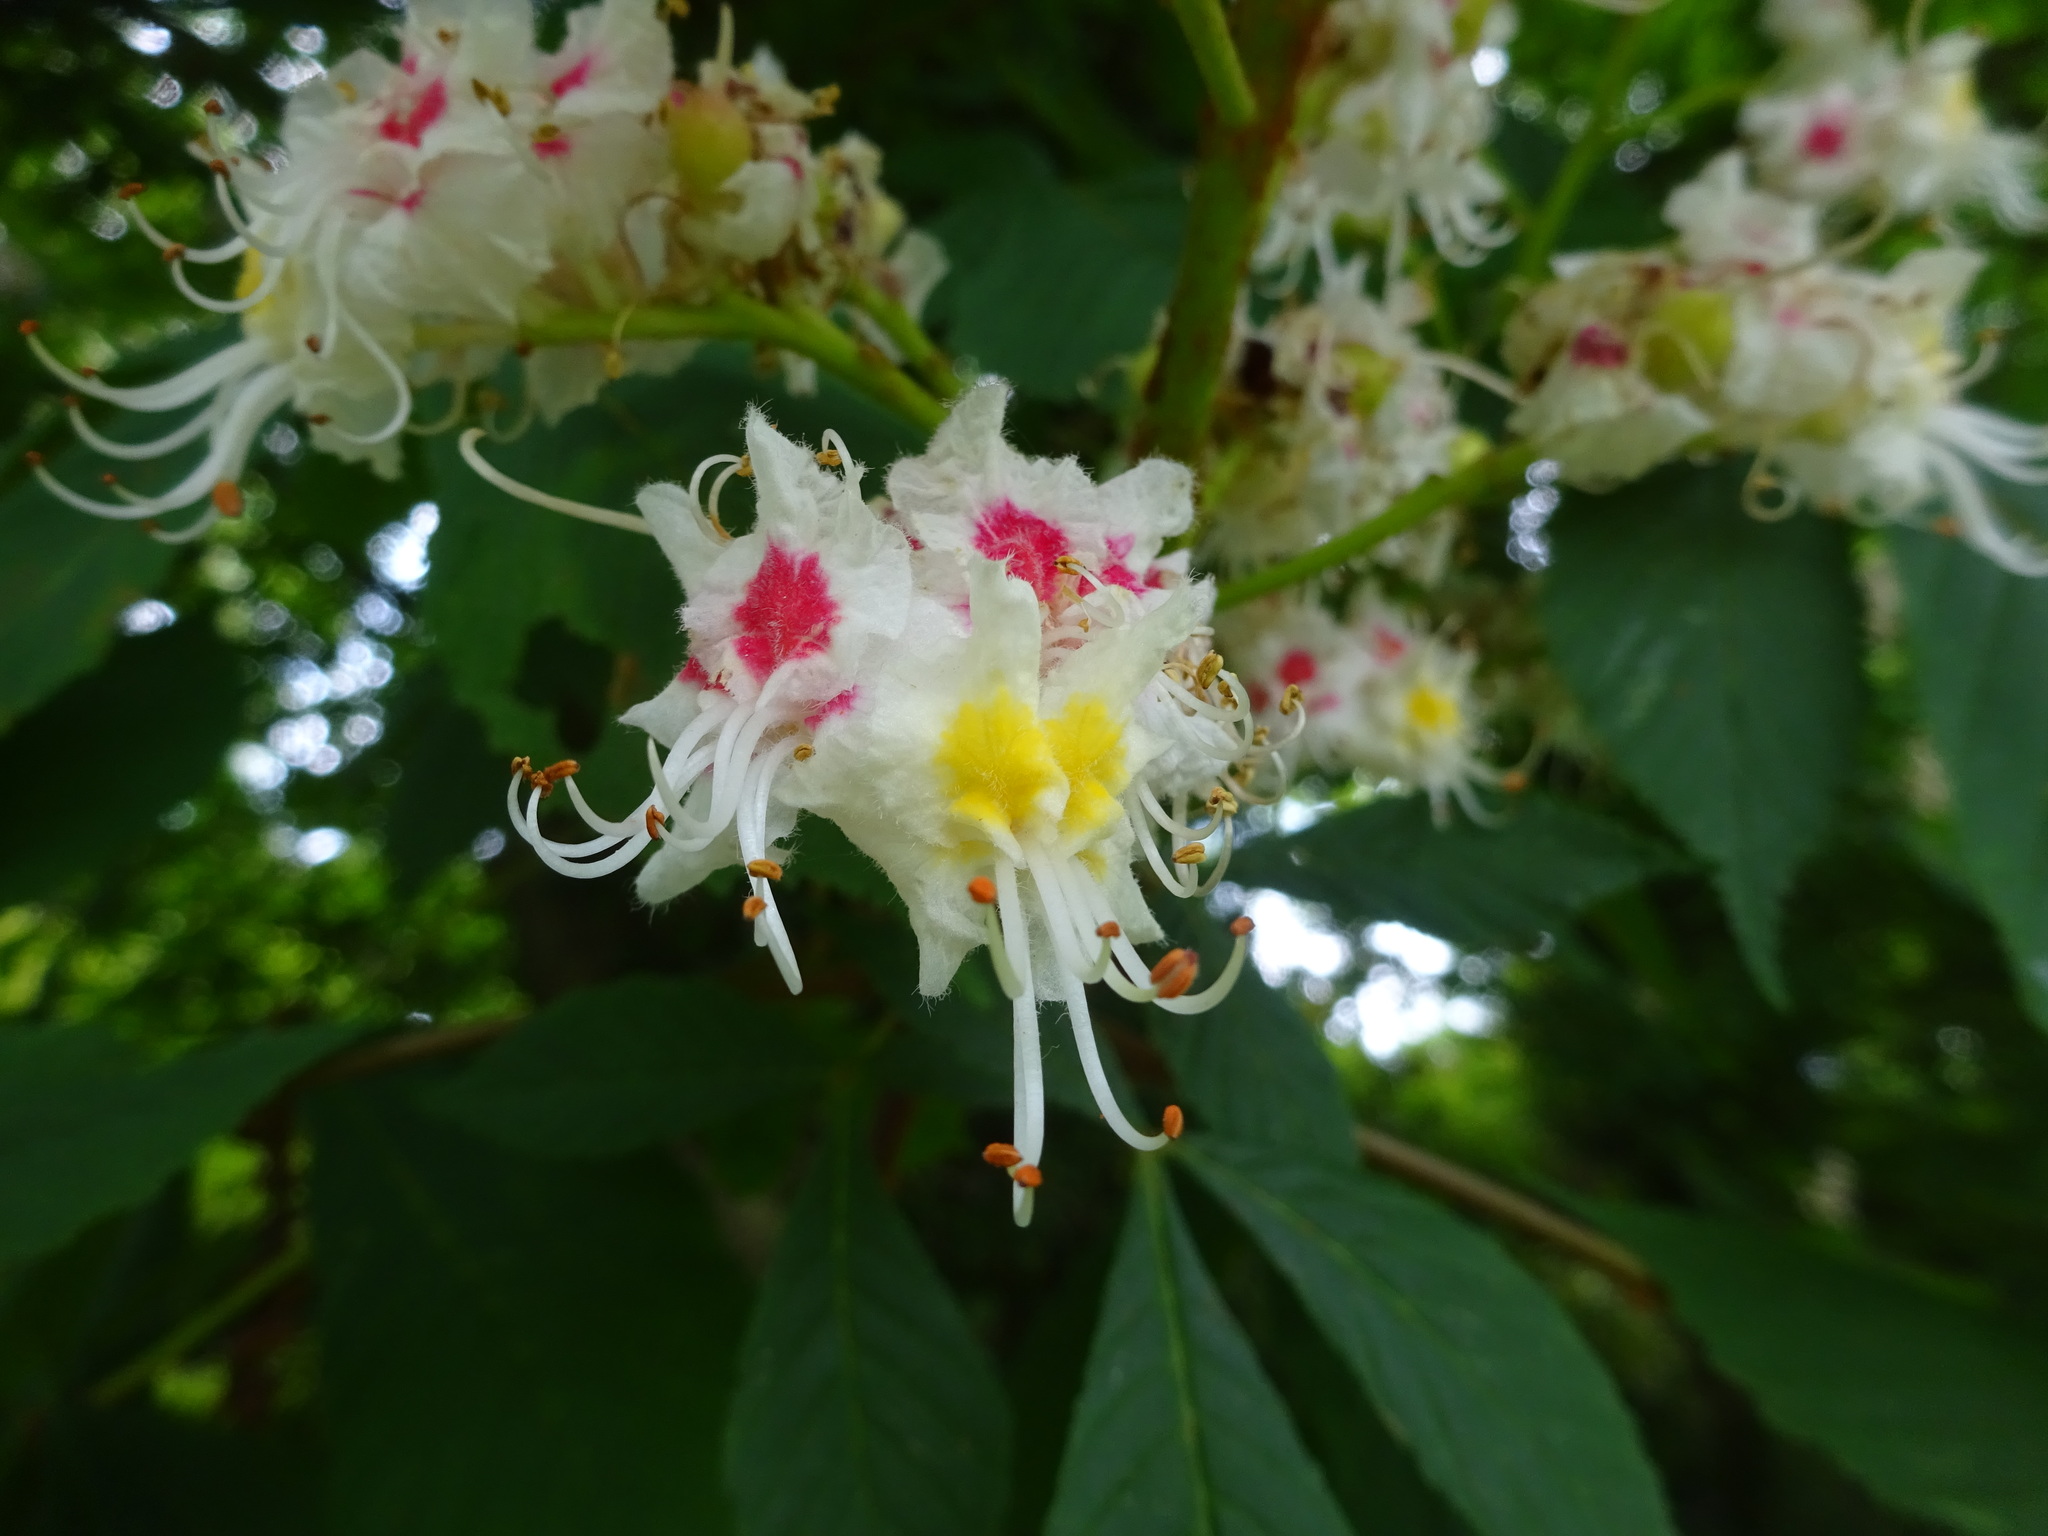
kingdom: Plantae
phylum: Tracheophyta
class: Magnoliopsida
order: Sapindales
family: Sapindaceae
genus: Aesculus
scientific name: Aesculus hippocastanum
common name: Horse-chestnut
